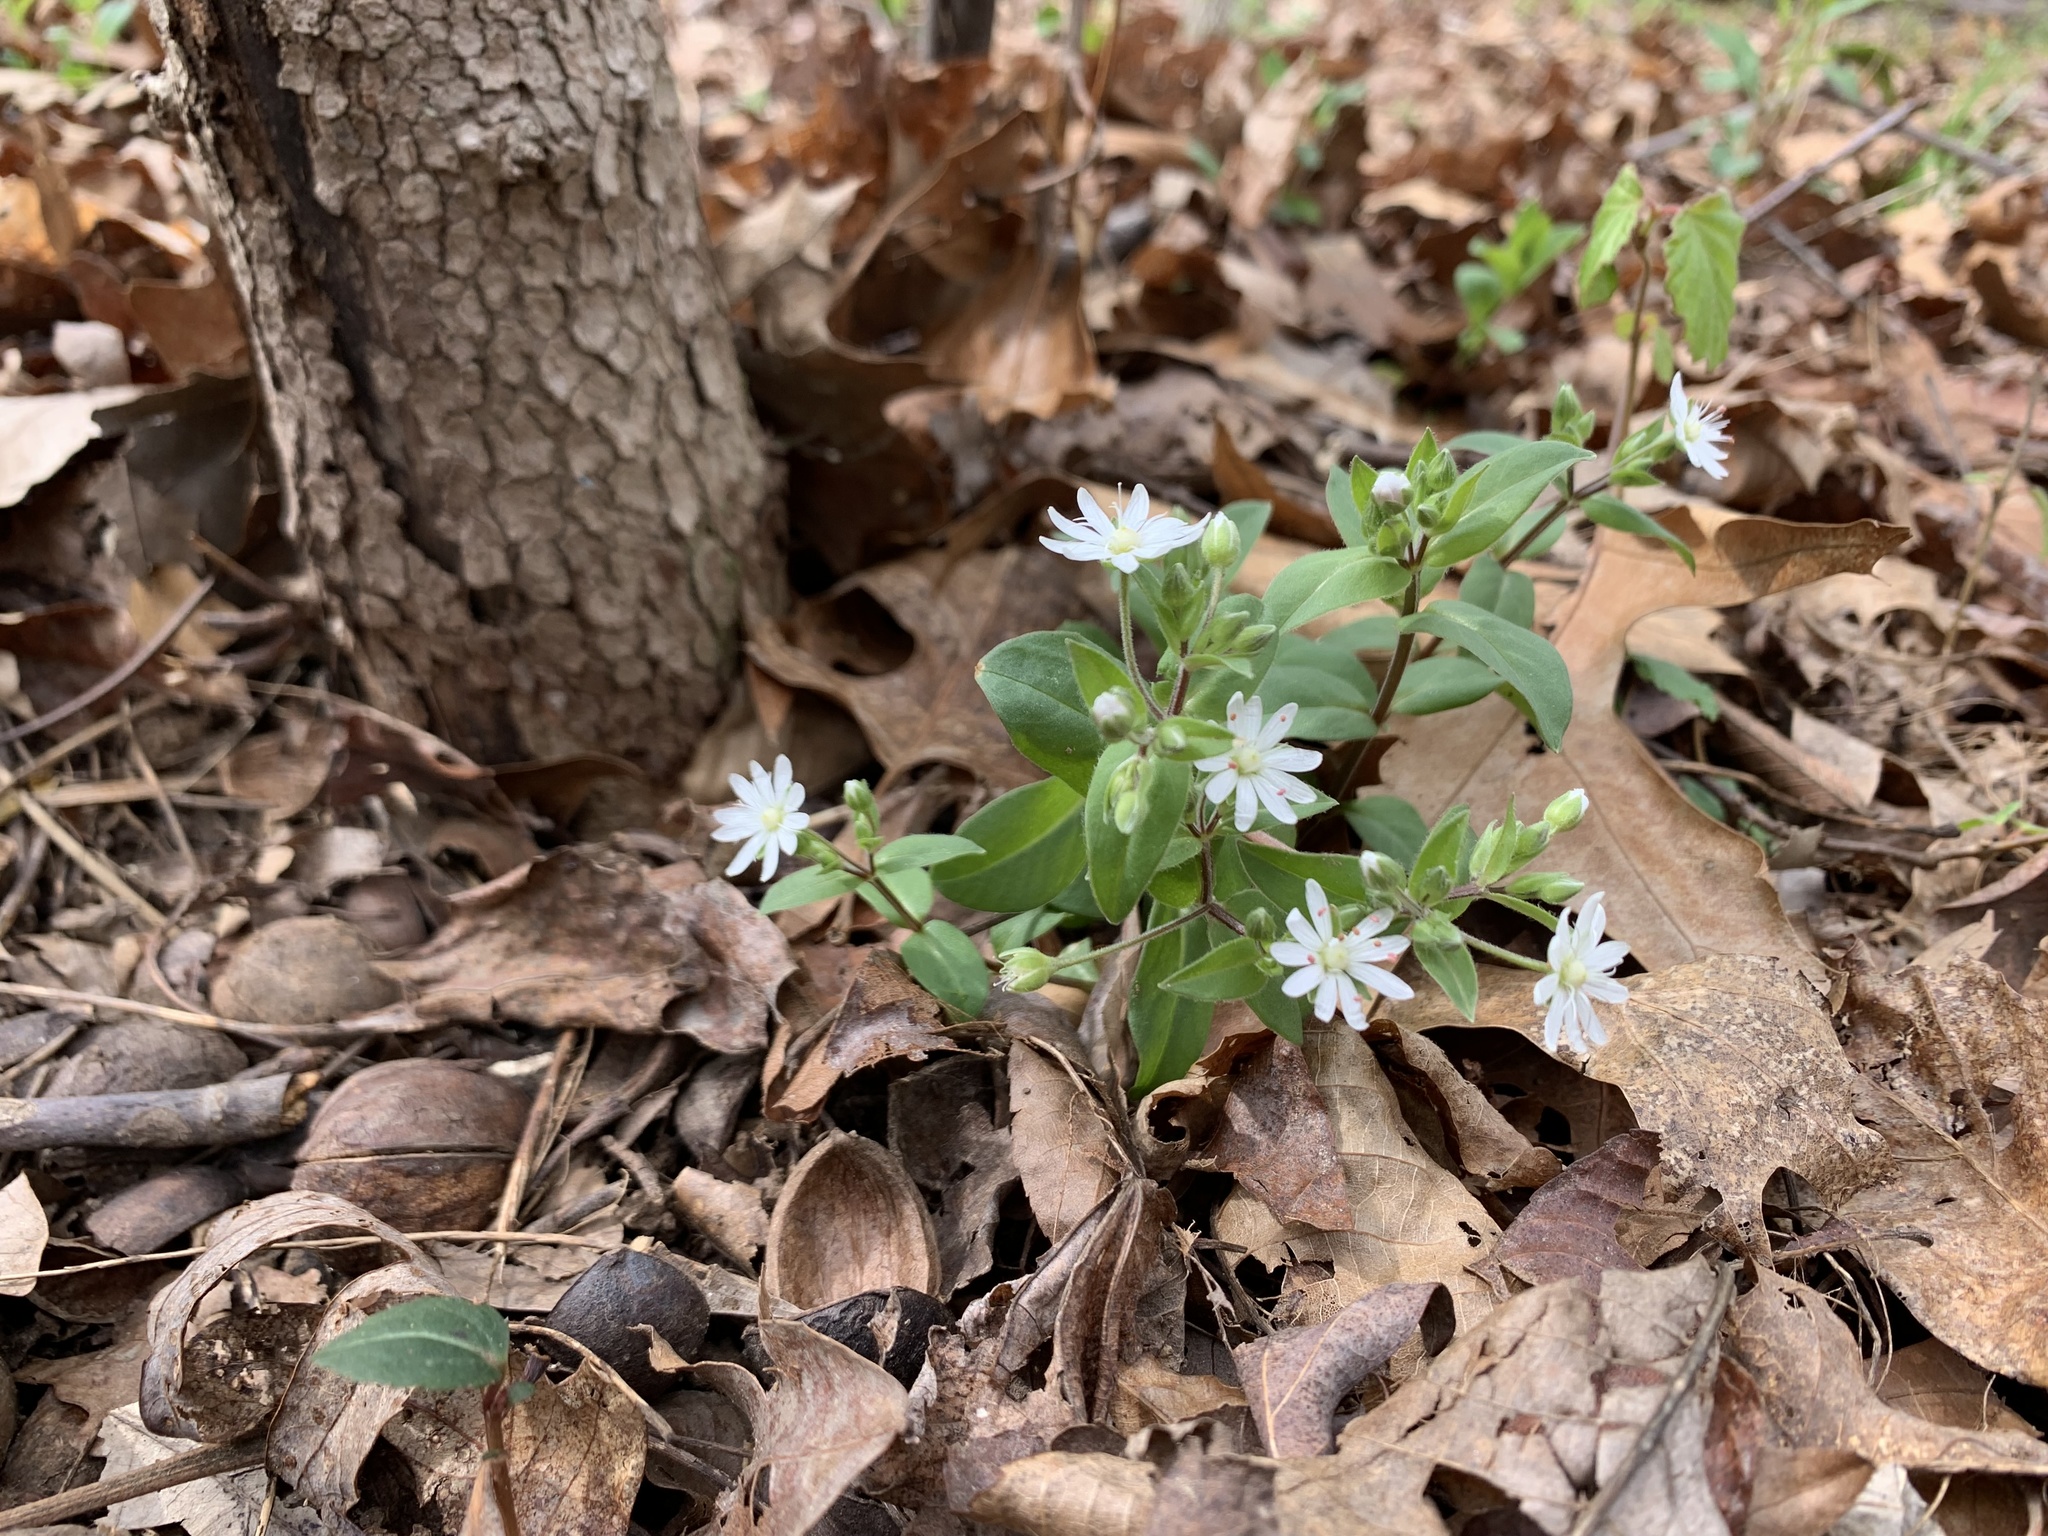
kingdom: Plantae
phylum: Tracheophyta
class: Magnoliopsida
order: Caryophyllales
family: Caryophyllaceae
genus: Stellaria
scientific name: Stellaria pubera
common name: Star chickweed
